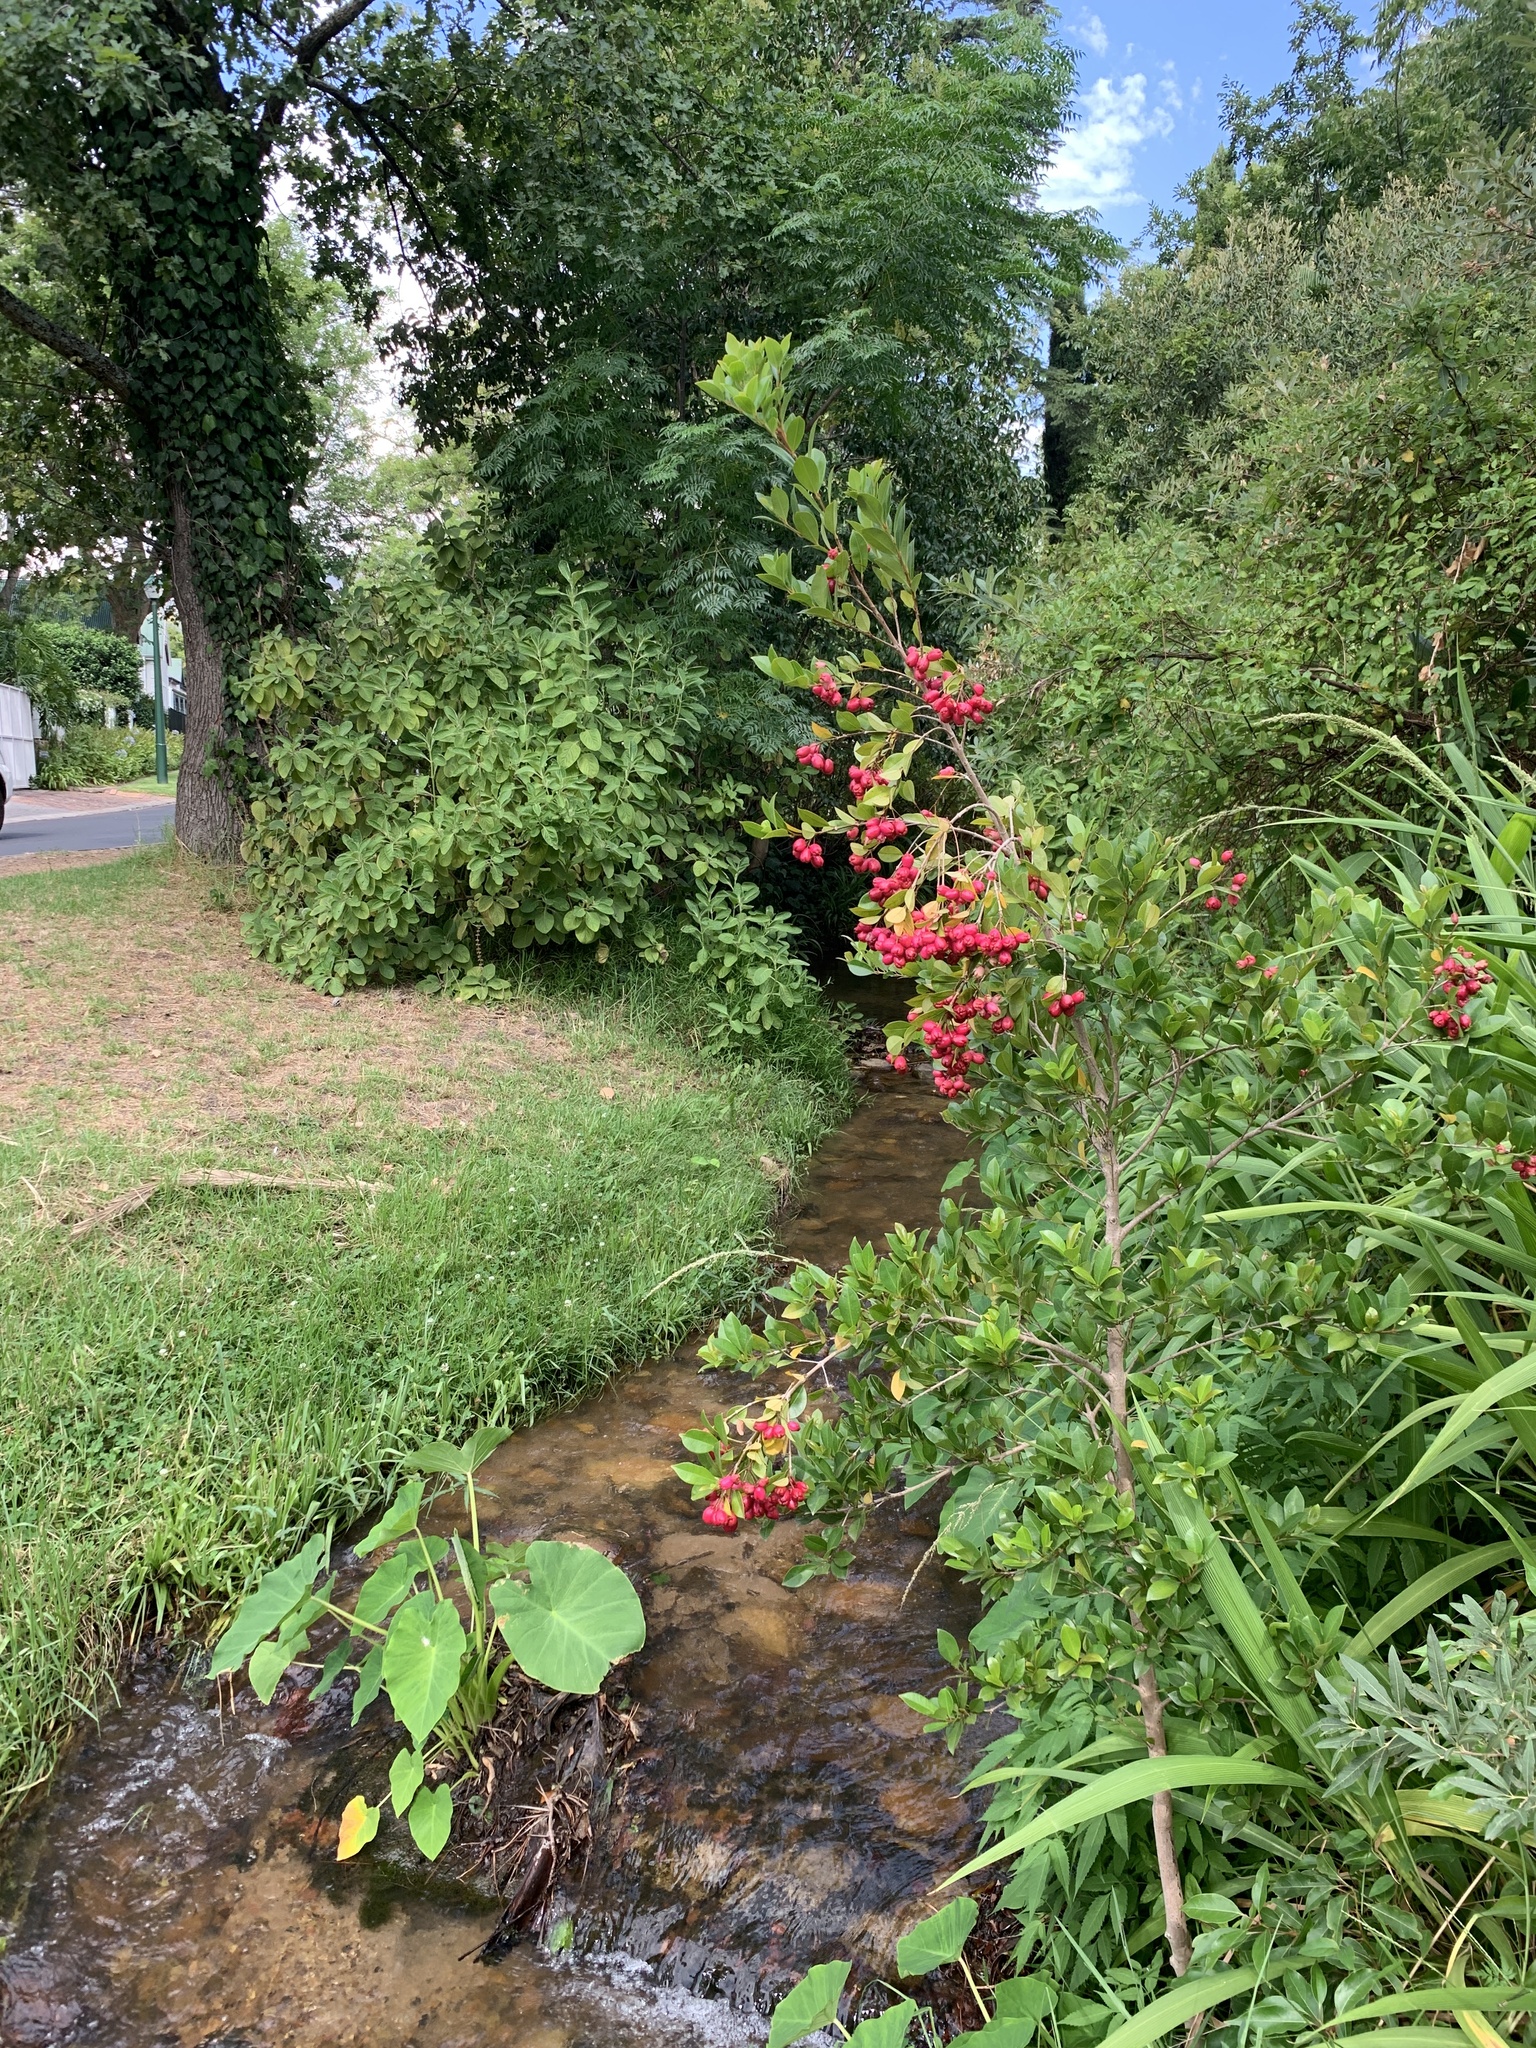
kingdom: Plantae
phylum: Tracheophyta
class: Magnoliopsida
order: Myrtales
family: Myrtaceae
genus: Syzygium
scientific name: Syzygium australe
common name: Australian brush-cherry
